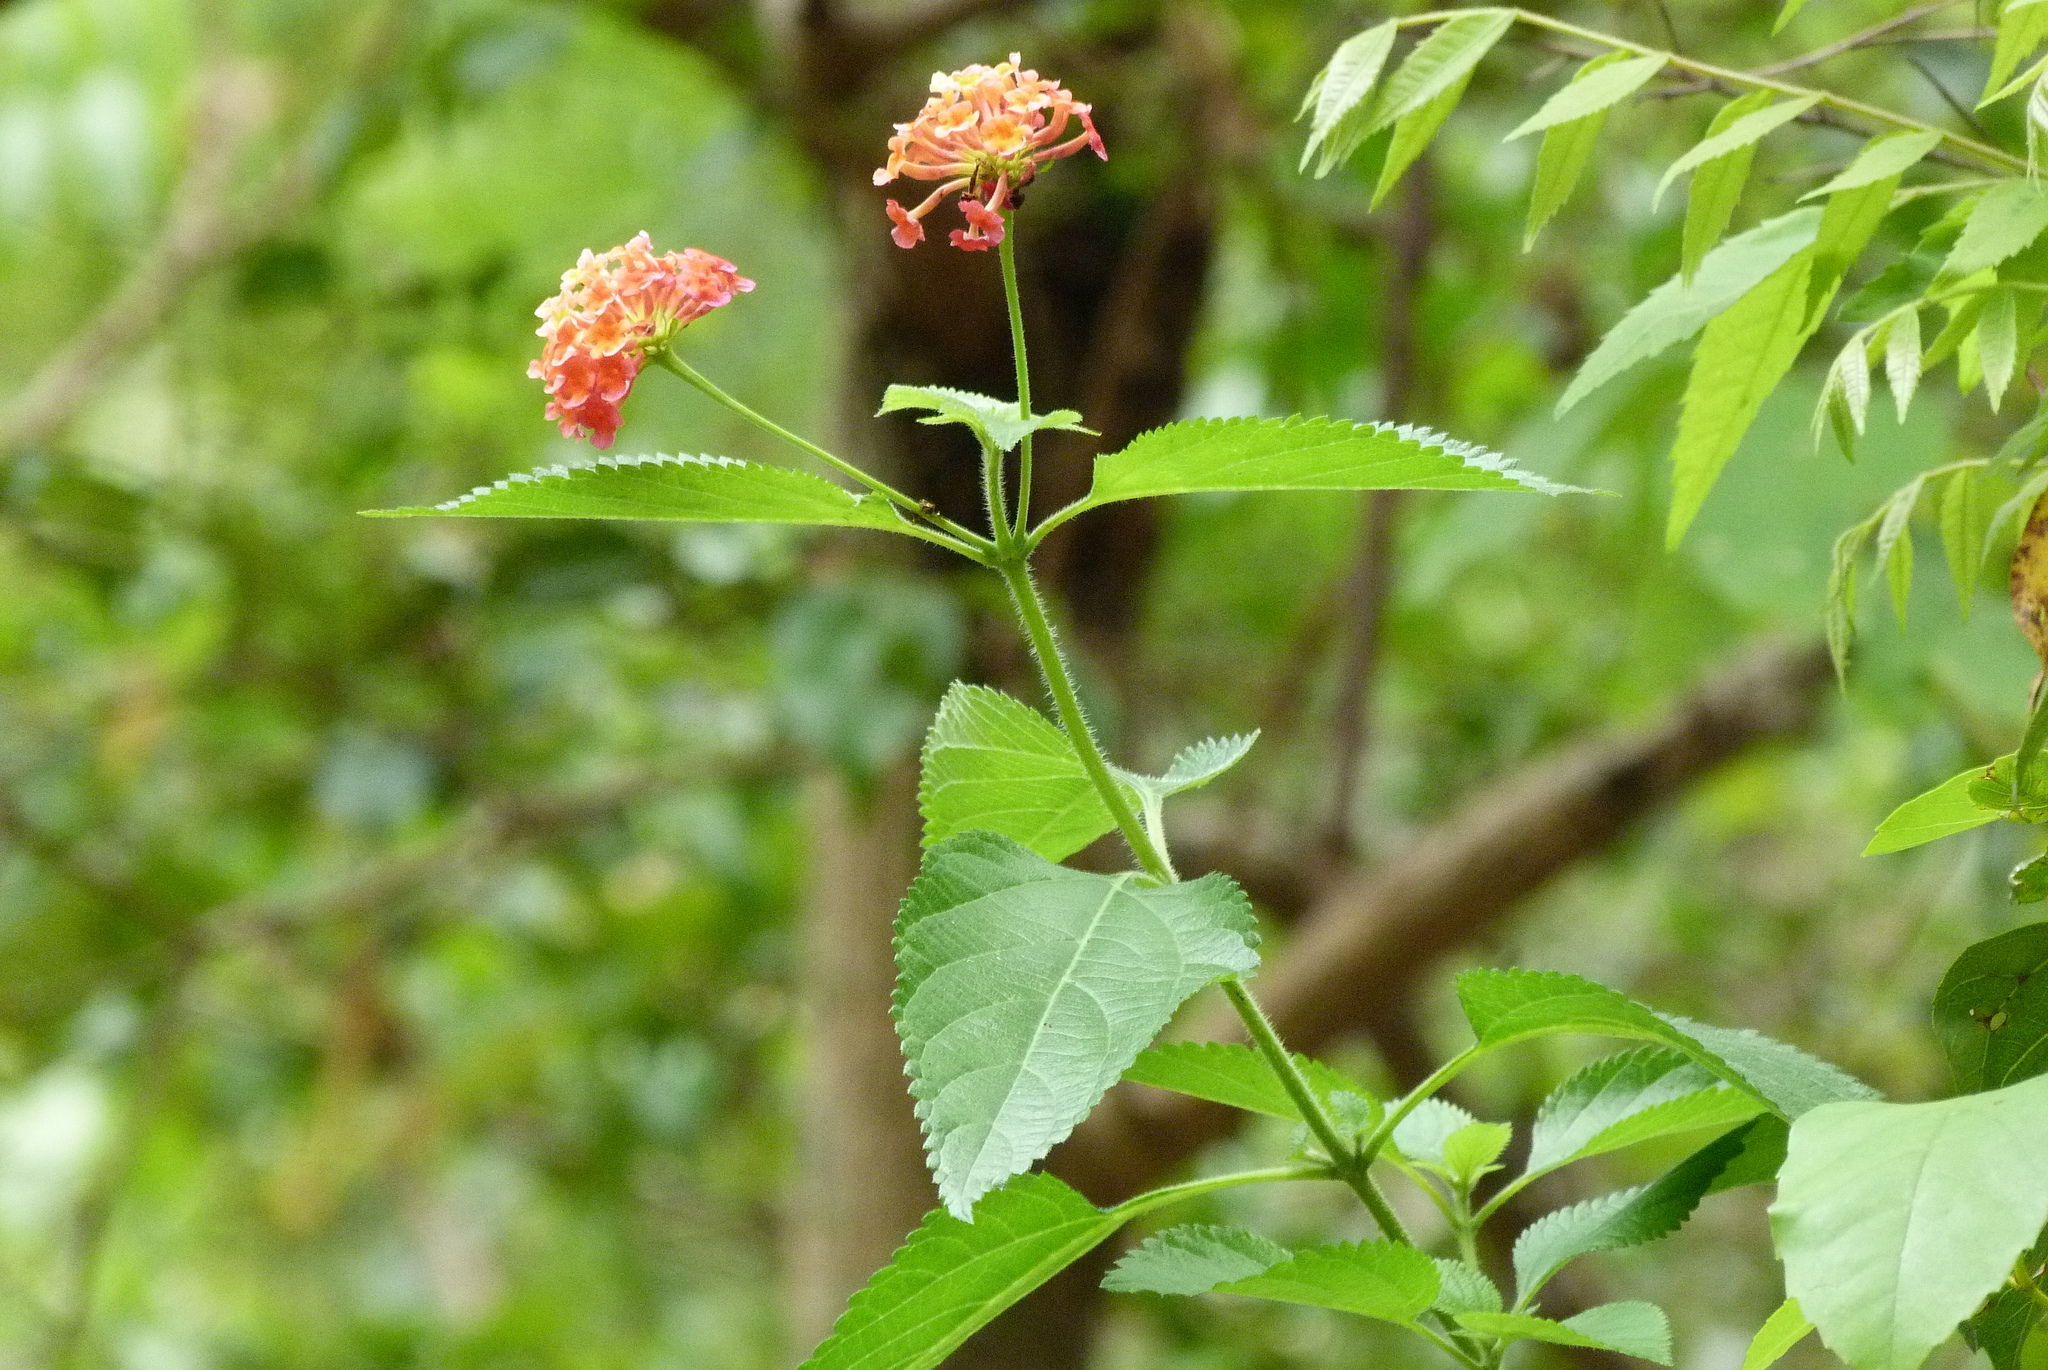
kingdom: Plantae
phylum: Tracheophyta
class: Magnoliopsida
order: Lamiales
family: Verbenaceae
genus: Lantana
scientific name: Lantana camara
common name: Lantana
